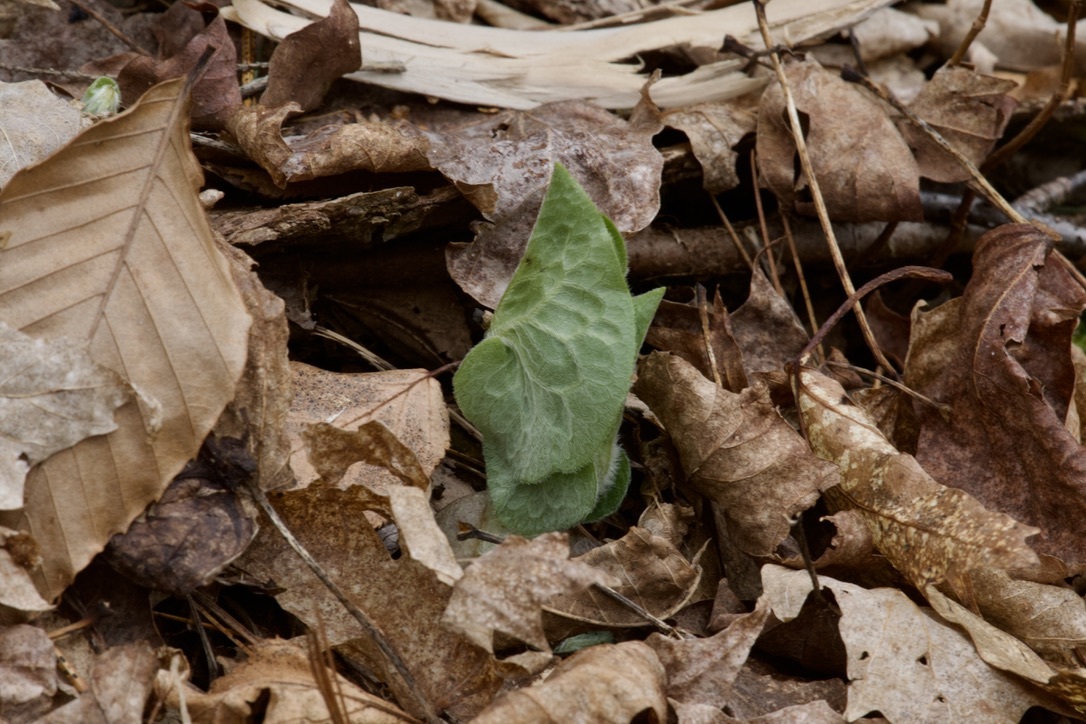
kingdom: Plantae
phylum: Tracheophyta
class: Magnoliopsida
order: Piperales
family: Aristolochiaceae
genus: Asarum
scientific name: Asarum canadense
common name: Wild ginger
